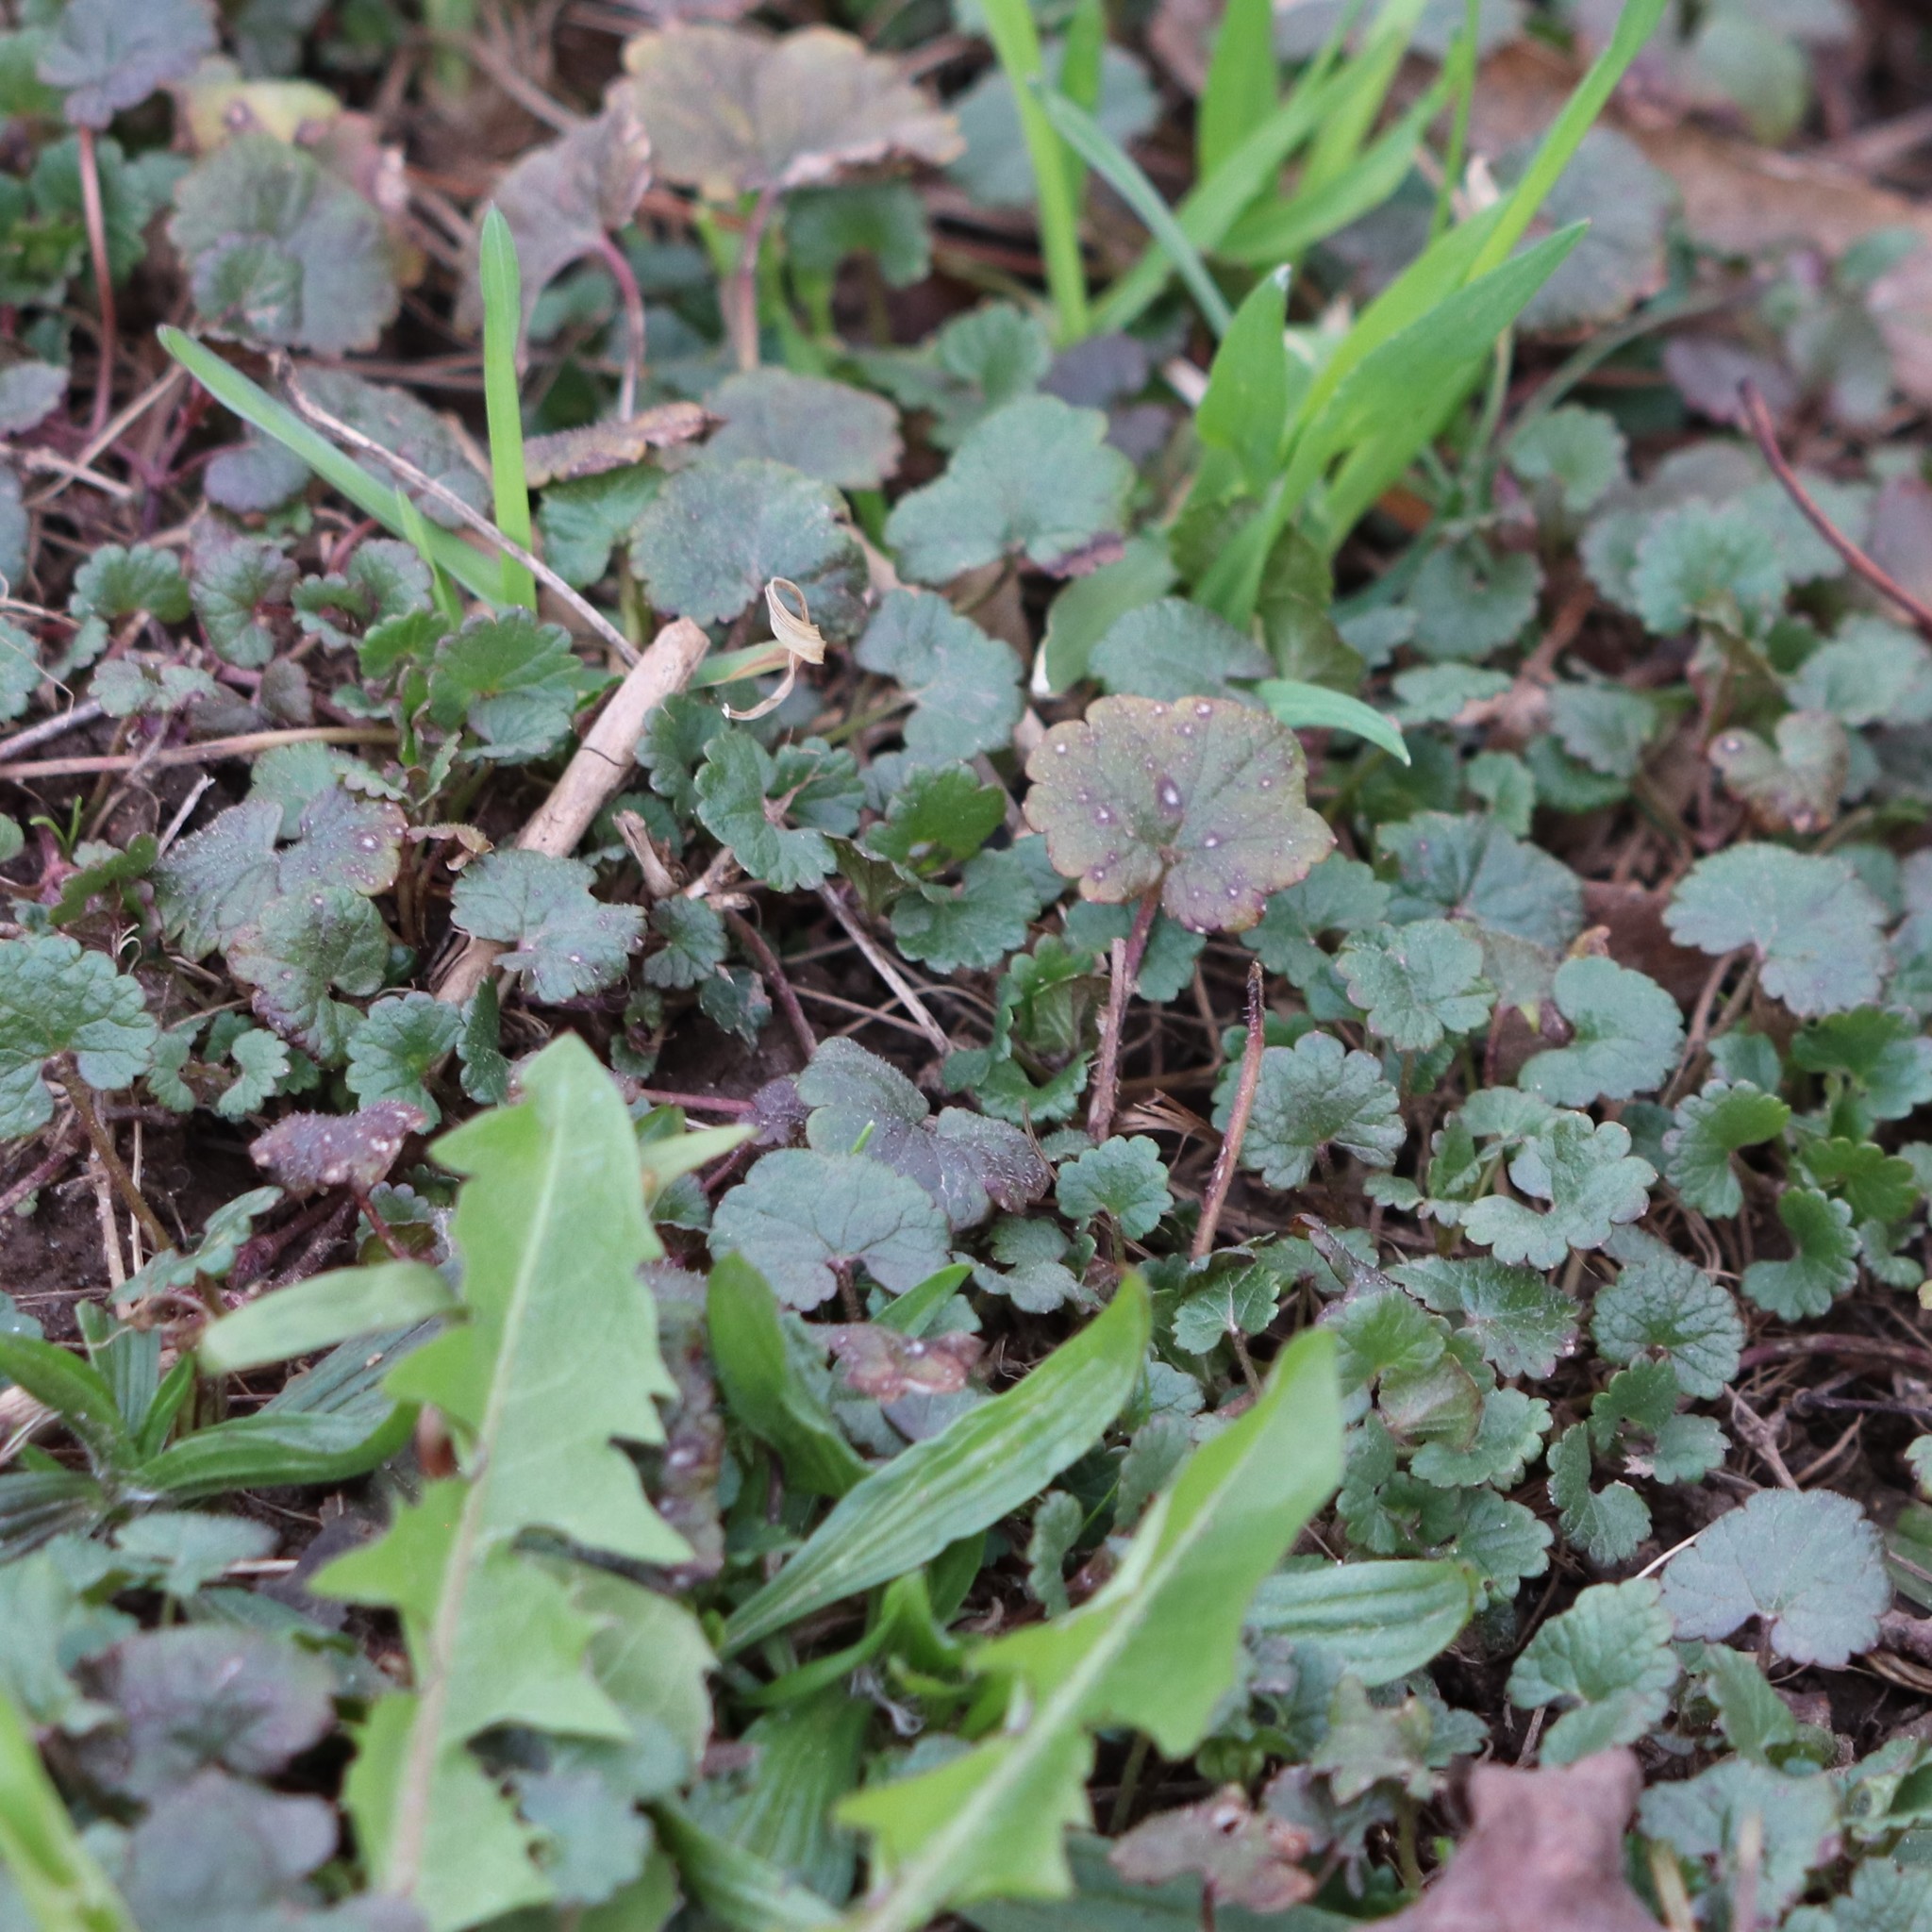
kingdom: Plantae
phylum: Tracheophyta
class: Magnoliopsida
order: Lamiales
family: Lamiaceae
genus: Glechoma
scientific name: Glechoma hederacea
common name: Ground ivy
